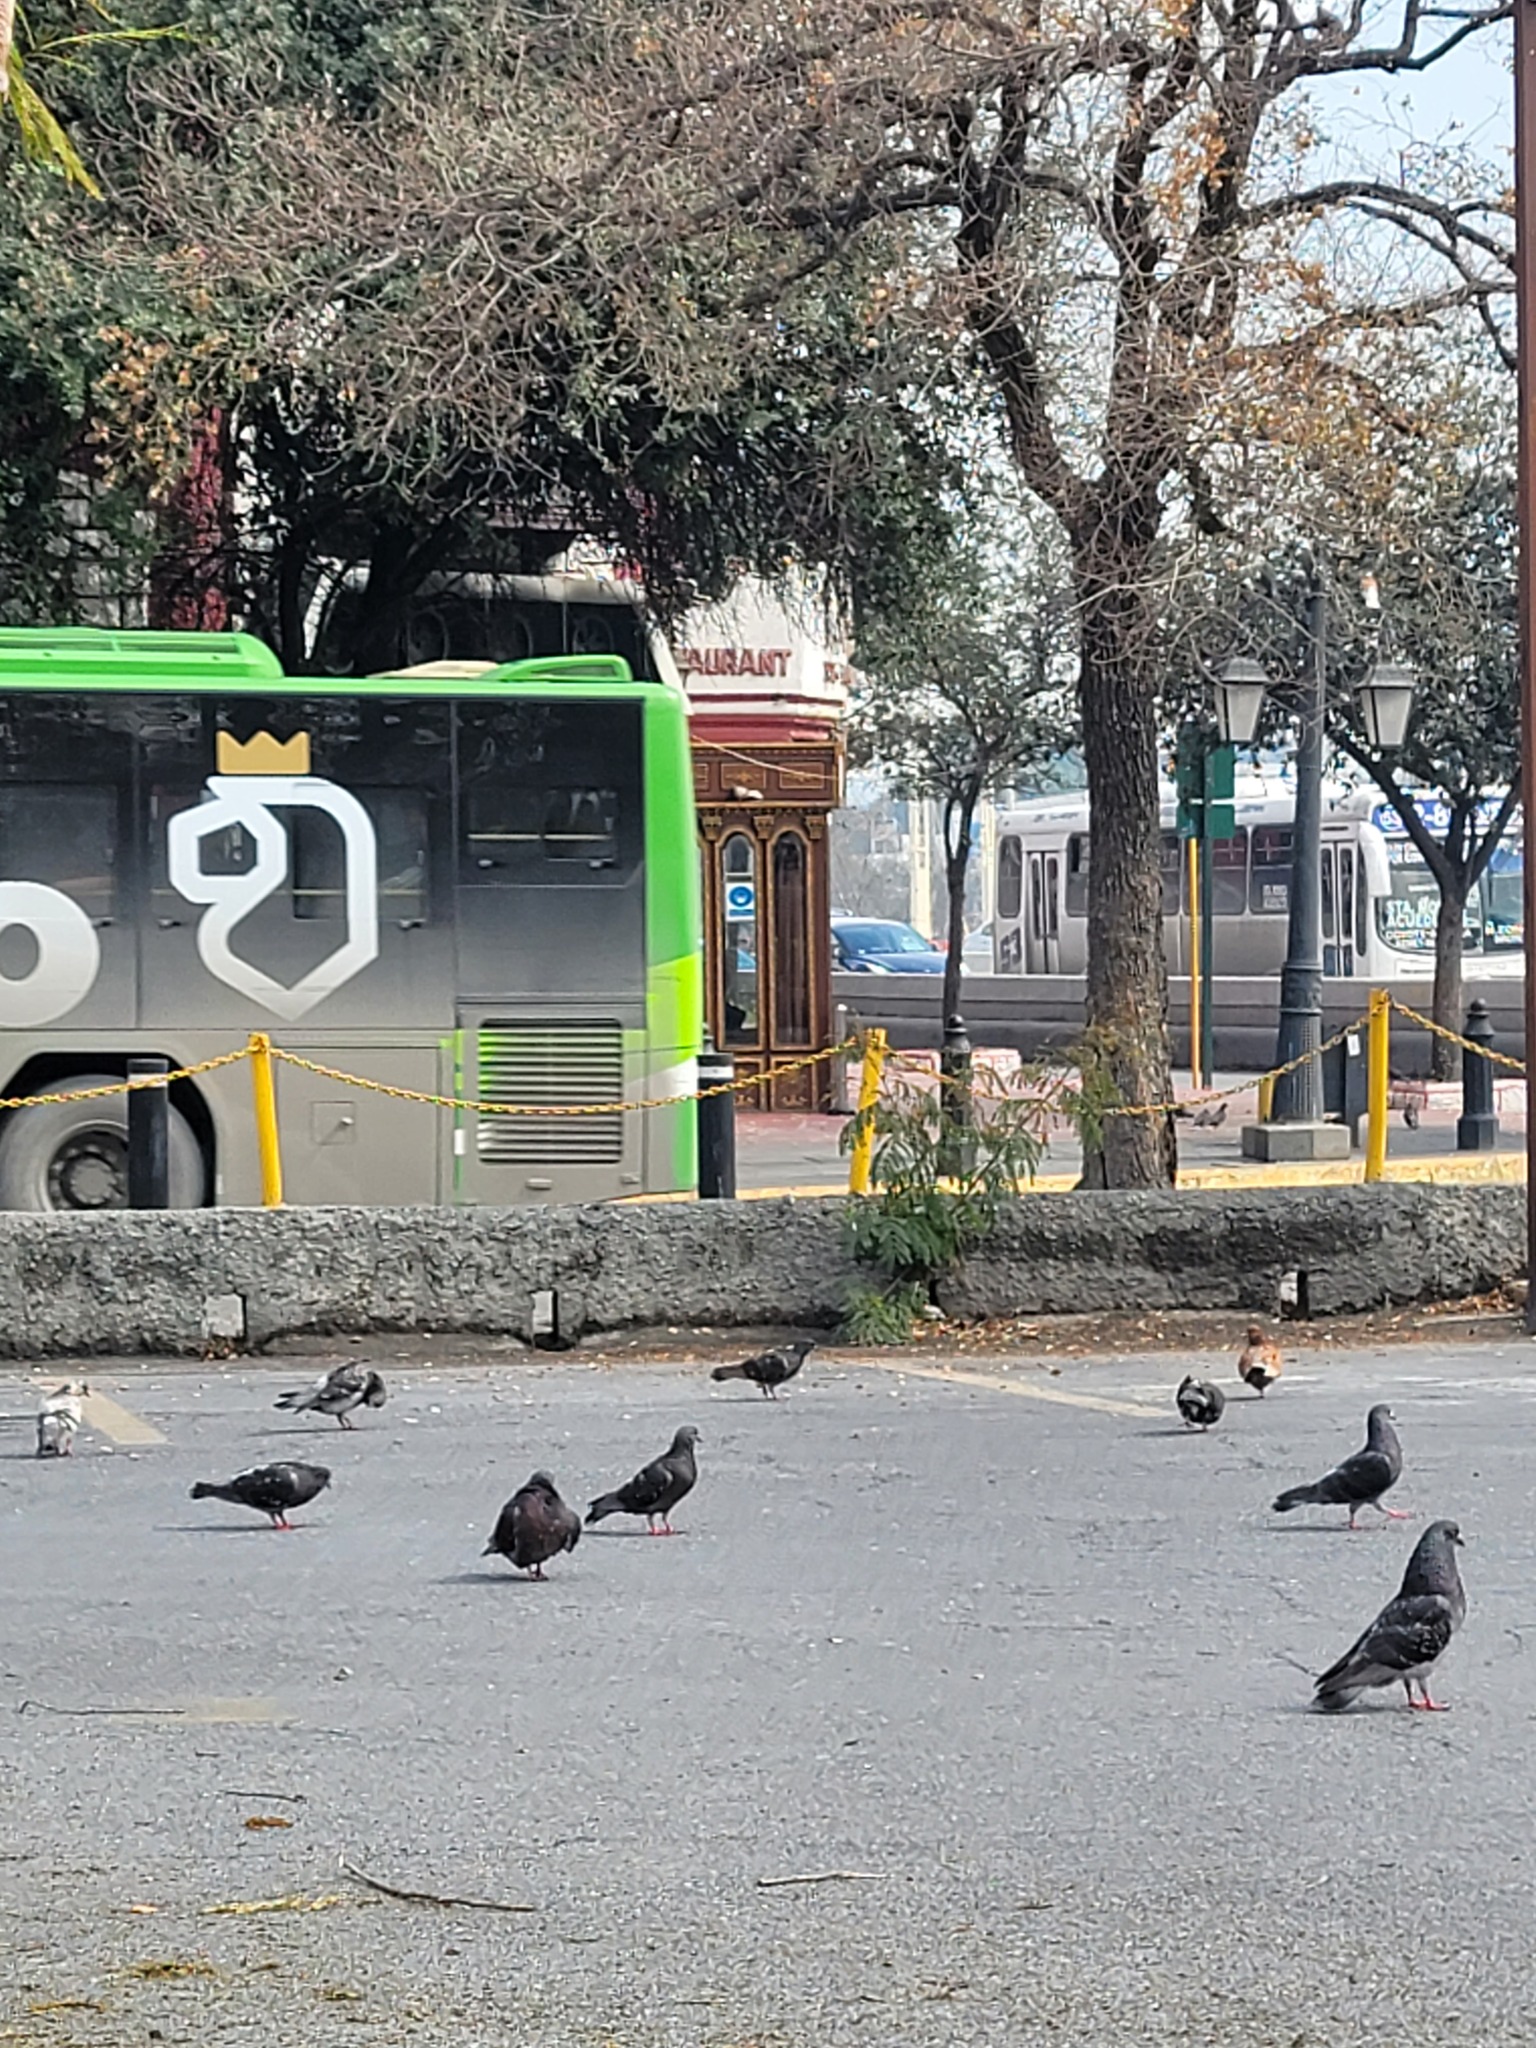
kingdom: Animalia
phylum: Chordata
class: Aves
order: Columbiformes
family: Columbidae
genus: Columba
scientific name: Columba livia
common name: Rock pigeon
